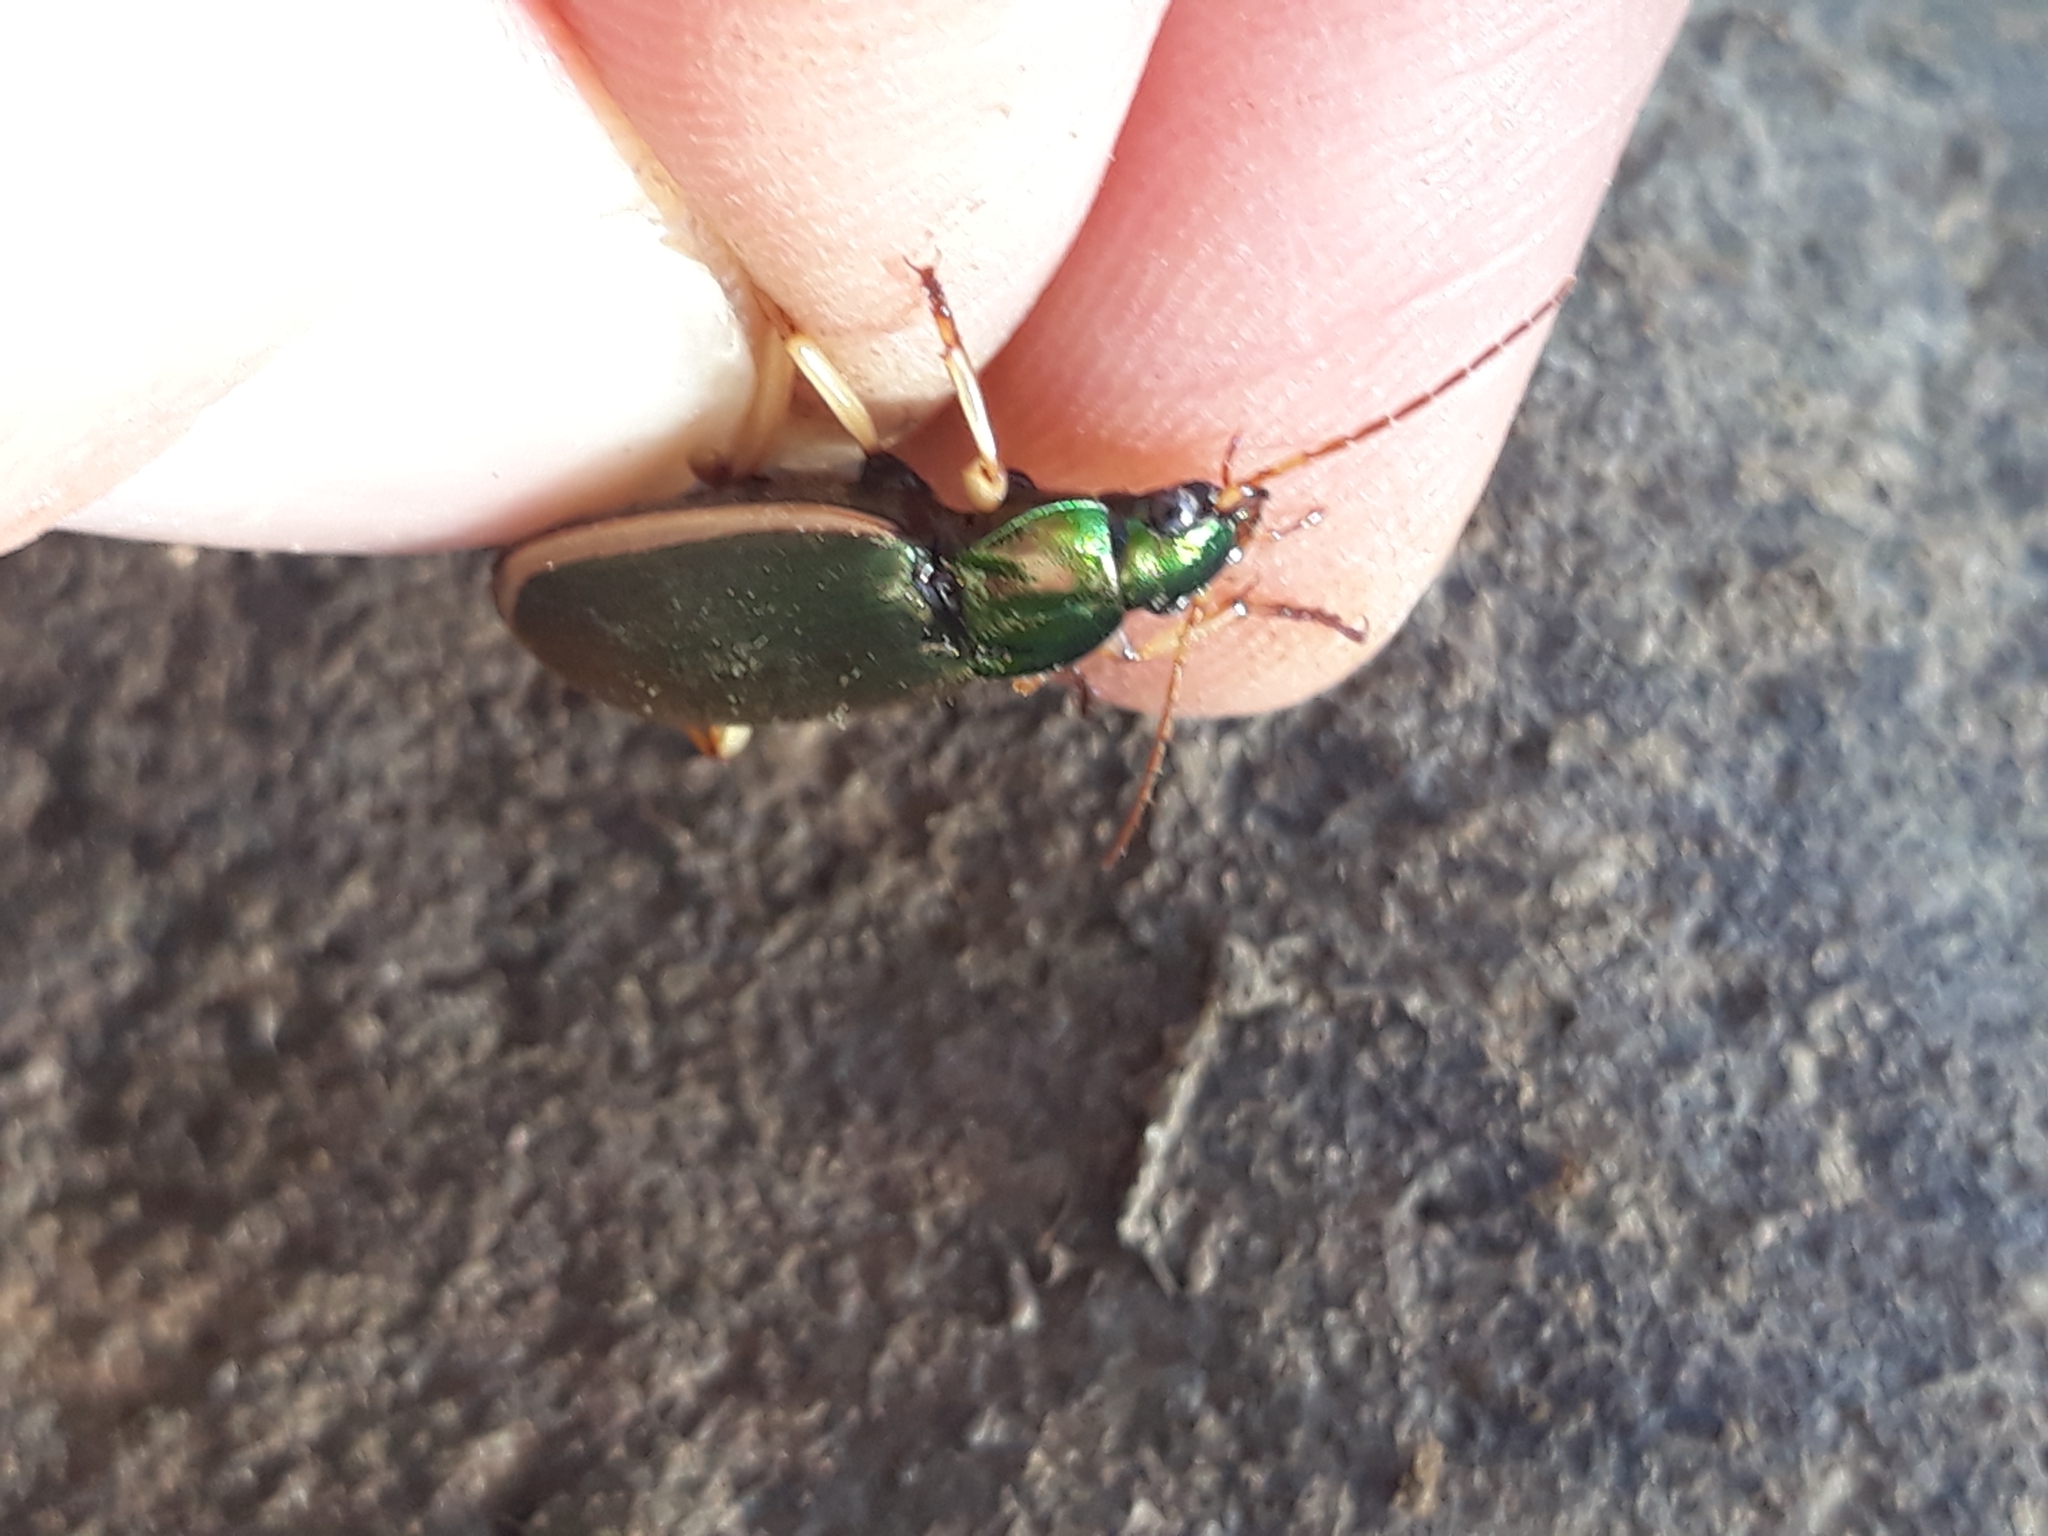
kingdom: Animalia
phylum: Arthropoda
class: Insecta
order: Coleoptera
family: Carabidae
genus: Chlaenius
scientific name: Chlaenius festivus
